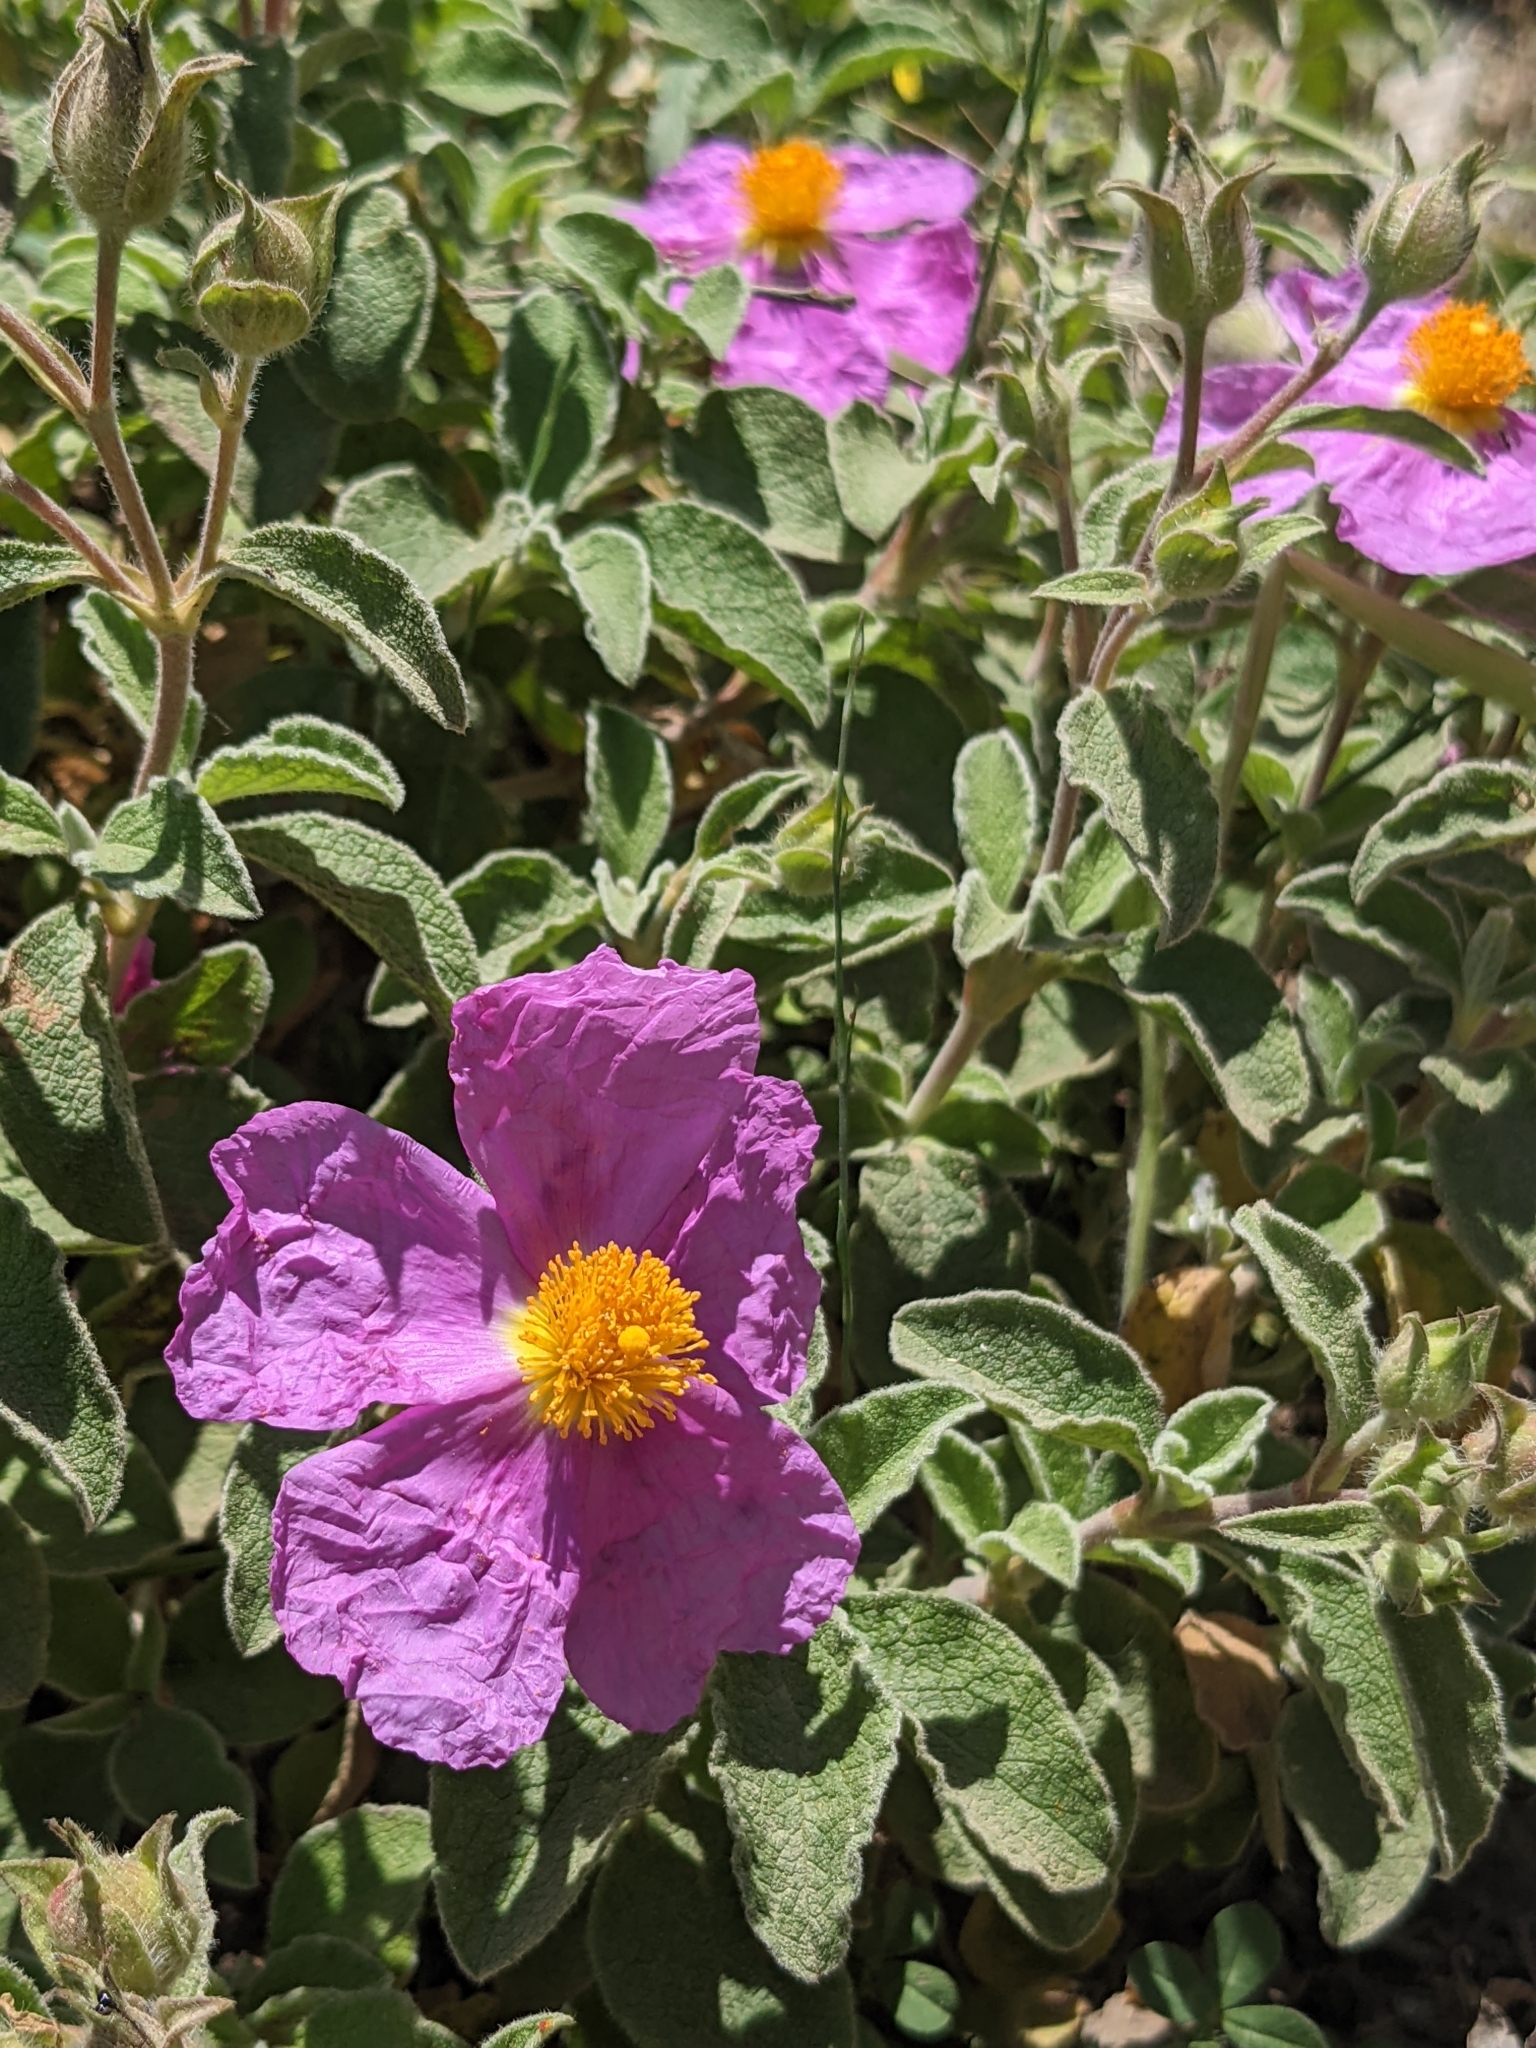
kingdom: Plantae
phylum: Tracheophyta
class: Magnoliopsida
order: Malvales
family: Cistaceae
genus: Cistus
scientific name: Cistus creticus
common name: Cretan rockrose
